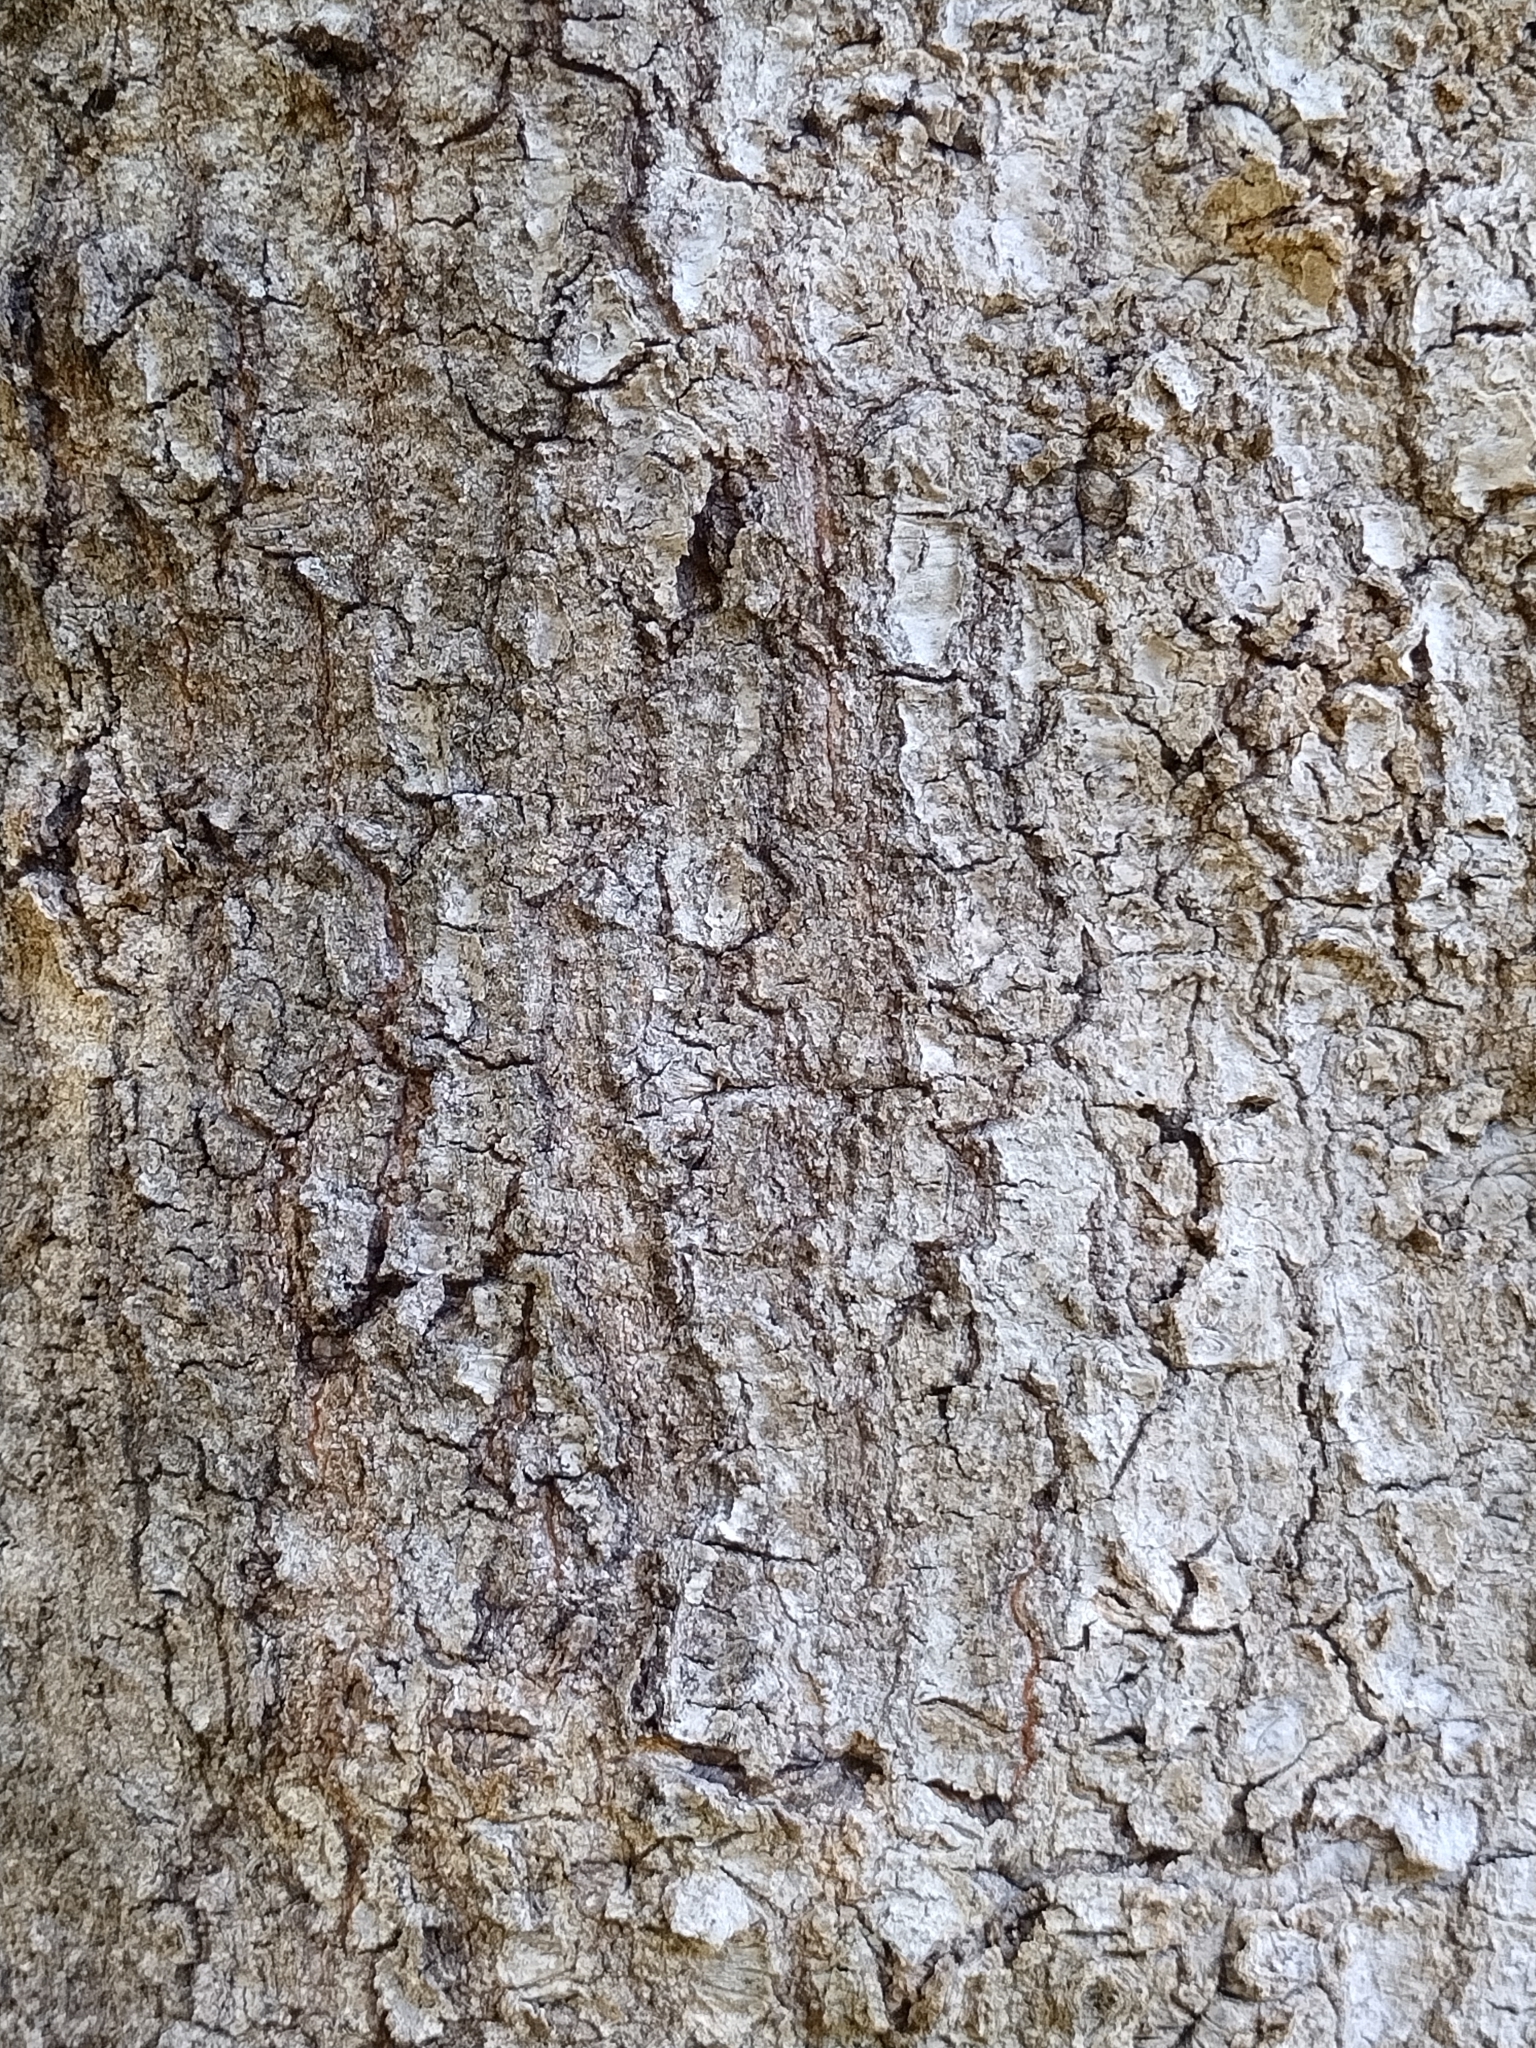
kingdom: Plantae
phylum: Tracheophyta
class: Magnoliopsida
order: Fagales
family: Fagaceae
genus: Quercus
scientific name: Quercus nigra
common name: Water oak
